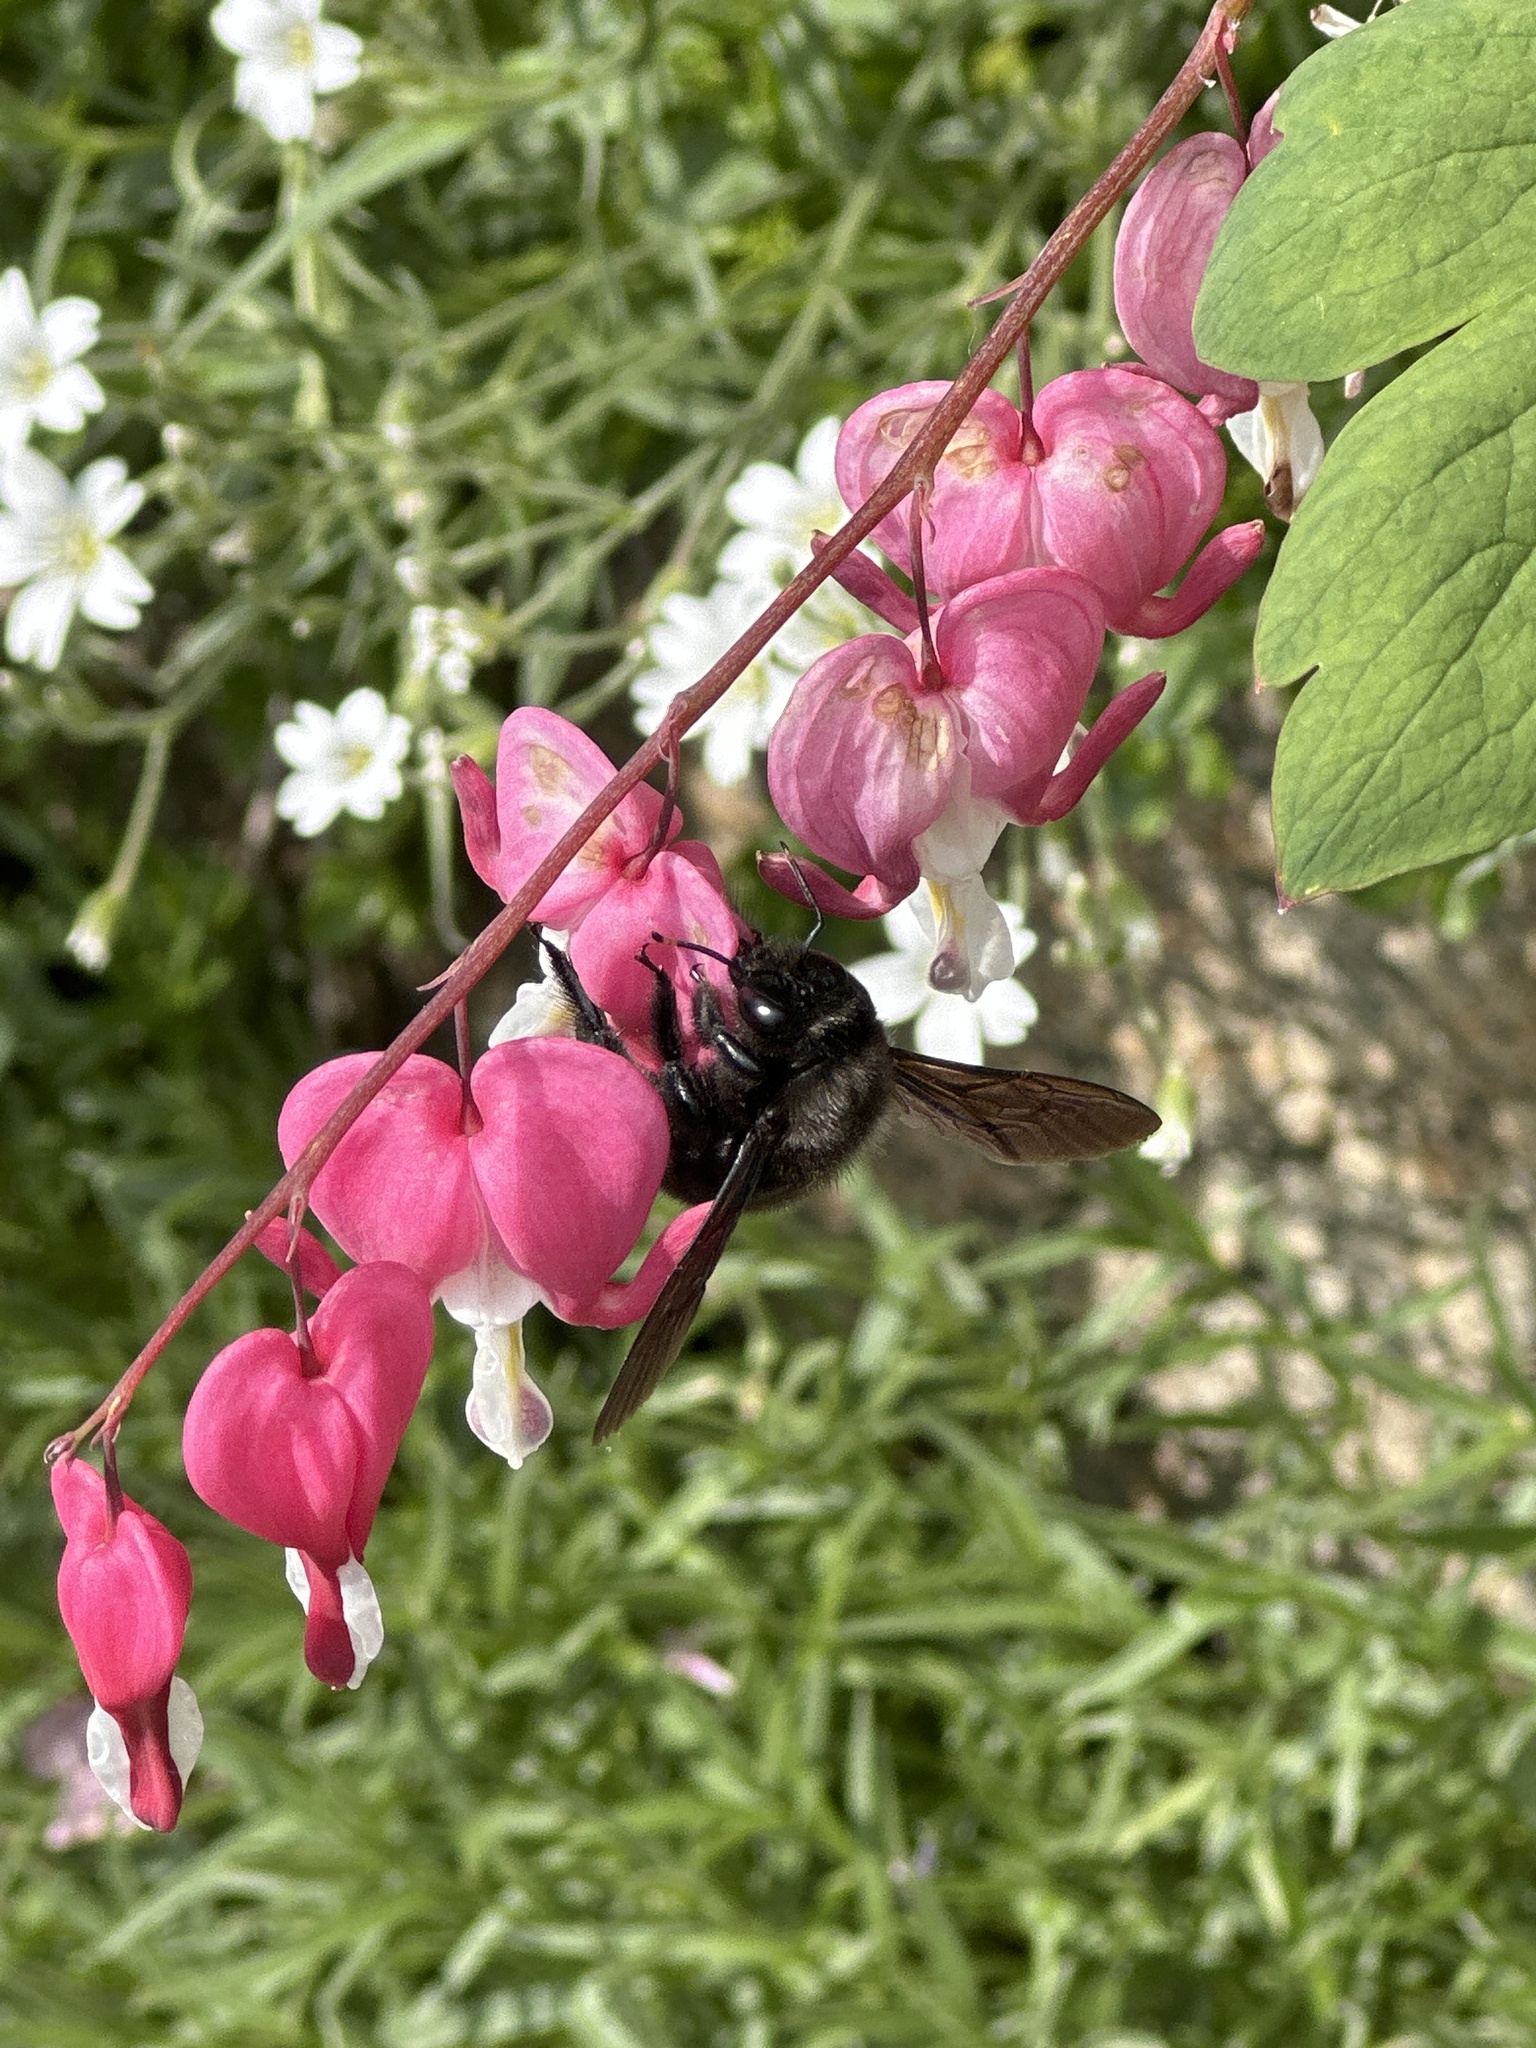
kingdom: Animalia
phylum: Arthropoda
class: Insecta
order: Hymenoptera
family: Apidae
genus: Xylocopa
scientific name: Xylocopa violacea
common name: Violet carpenter bee
